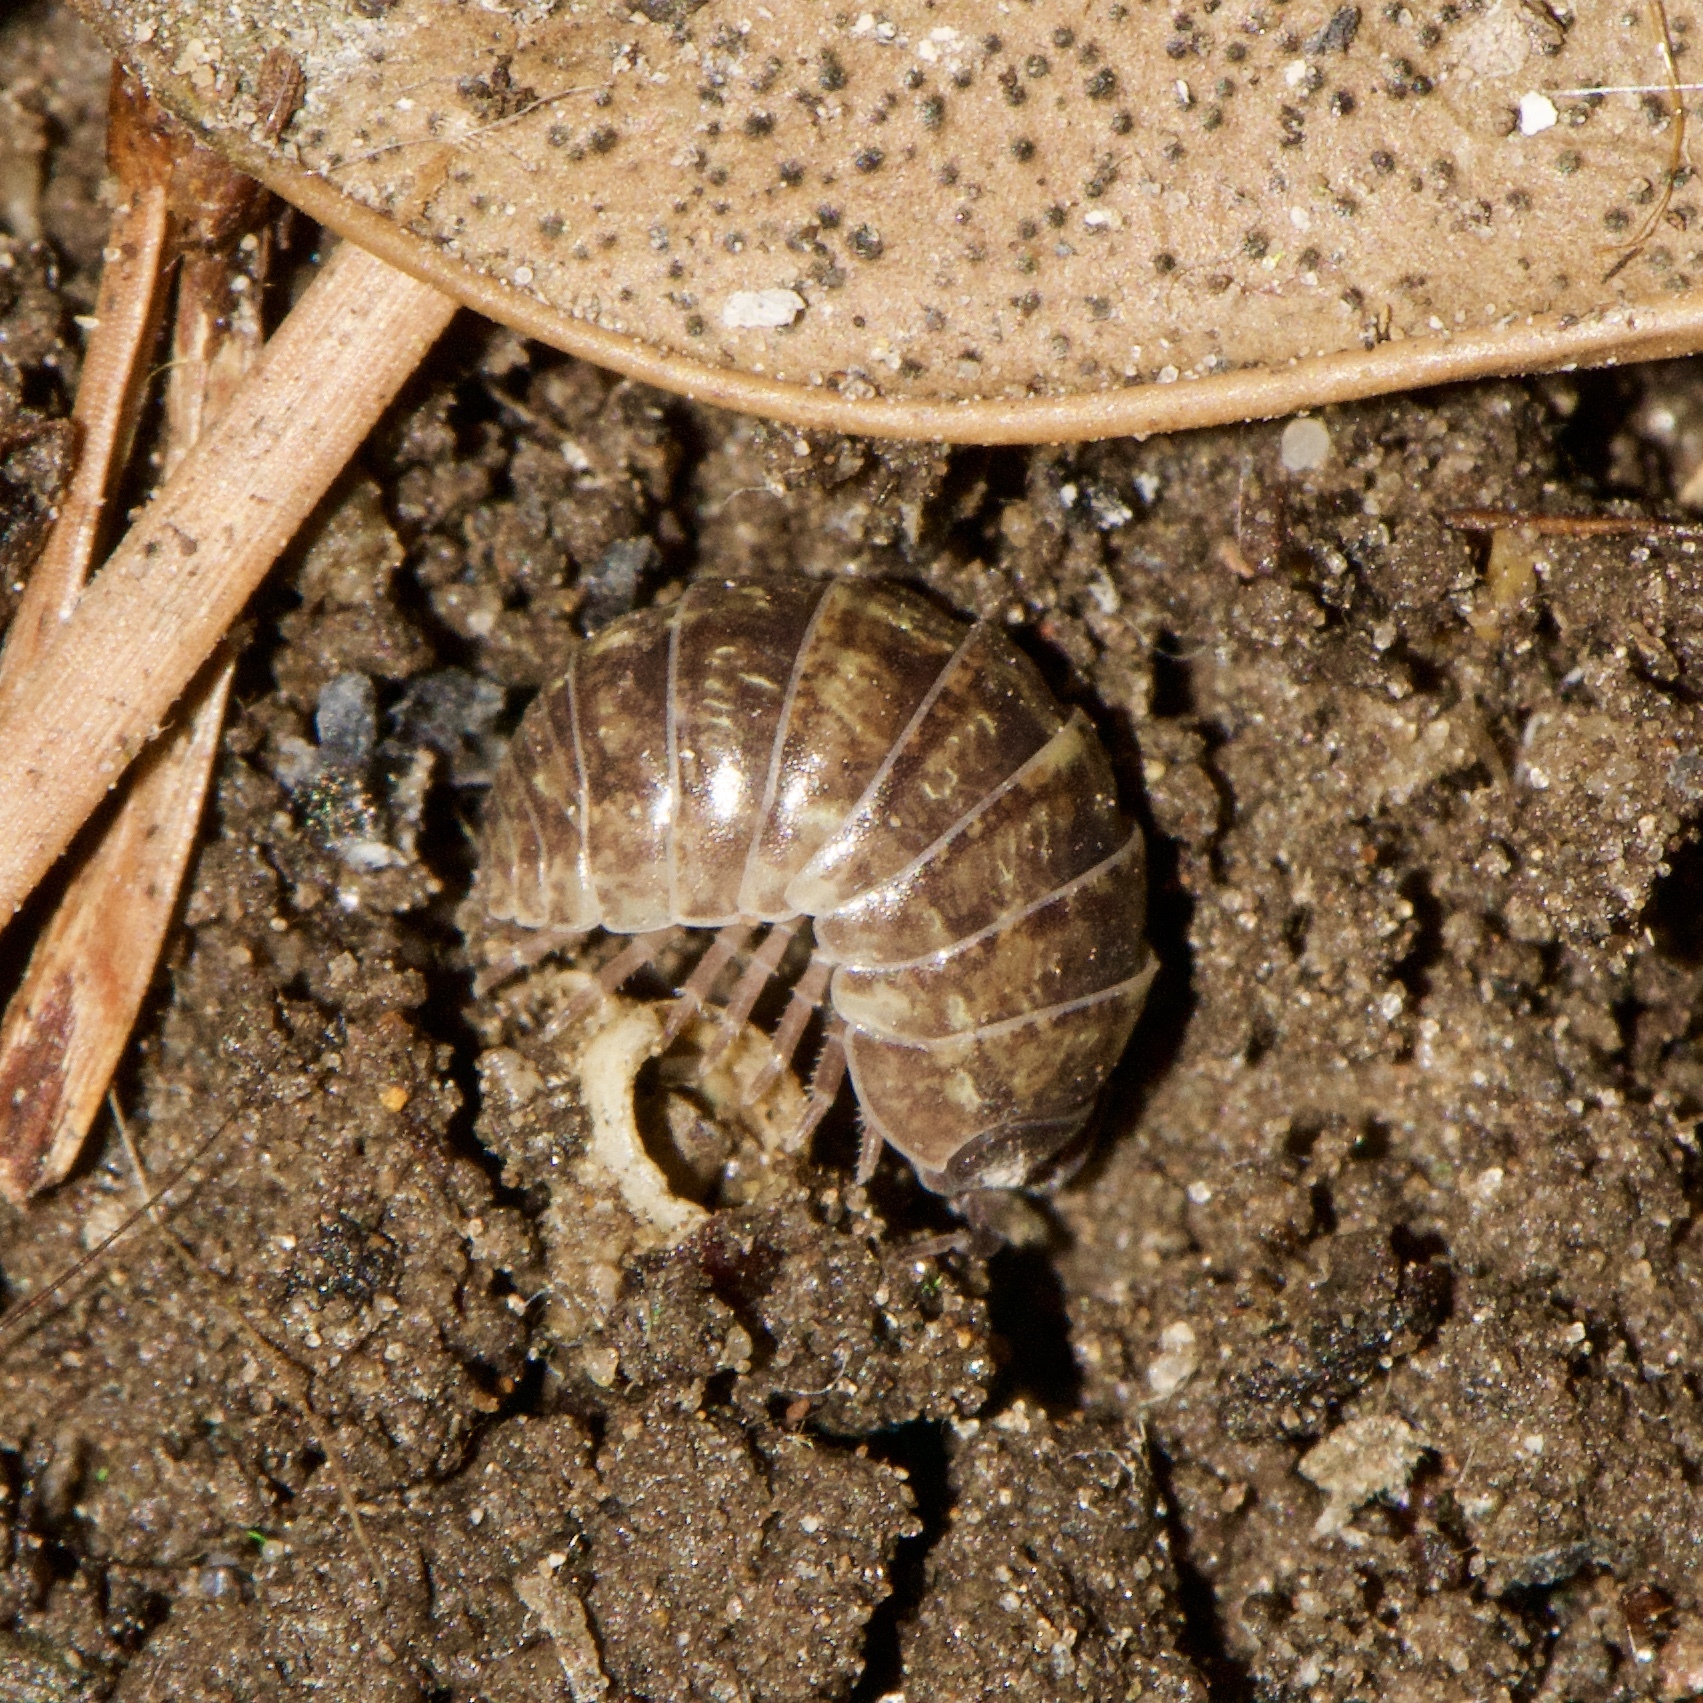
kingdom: Animalia
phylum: Arthropoda
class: Malacostraca
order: Isopoda
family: Armadillidiidae
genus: Armadillidium
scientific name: Armadillidium vulgare
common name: Common pill woodlouse
